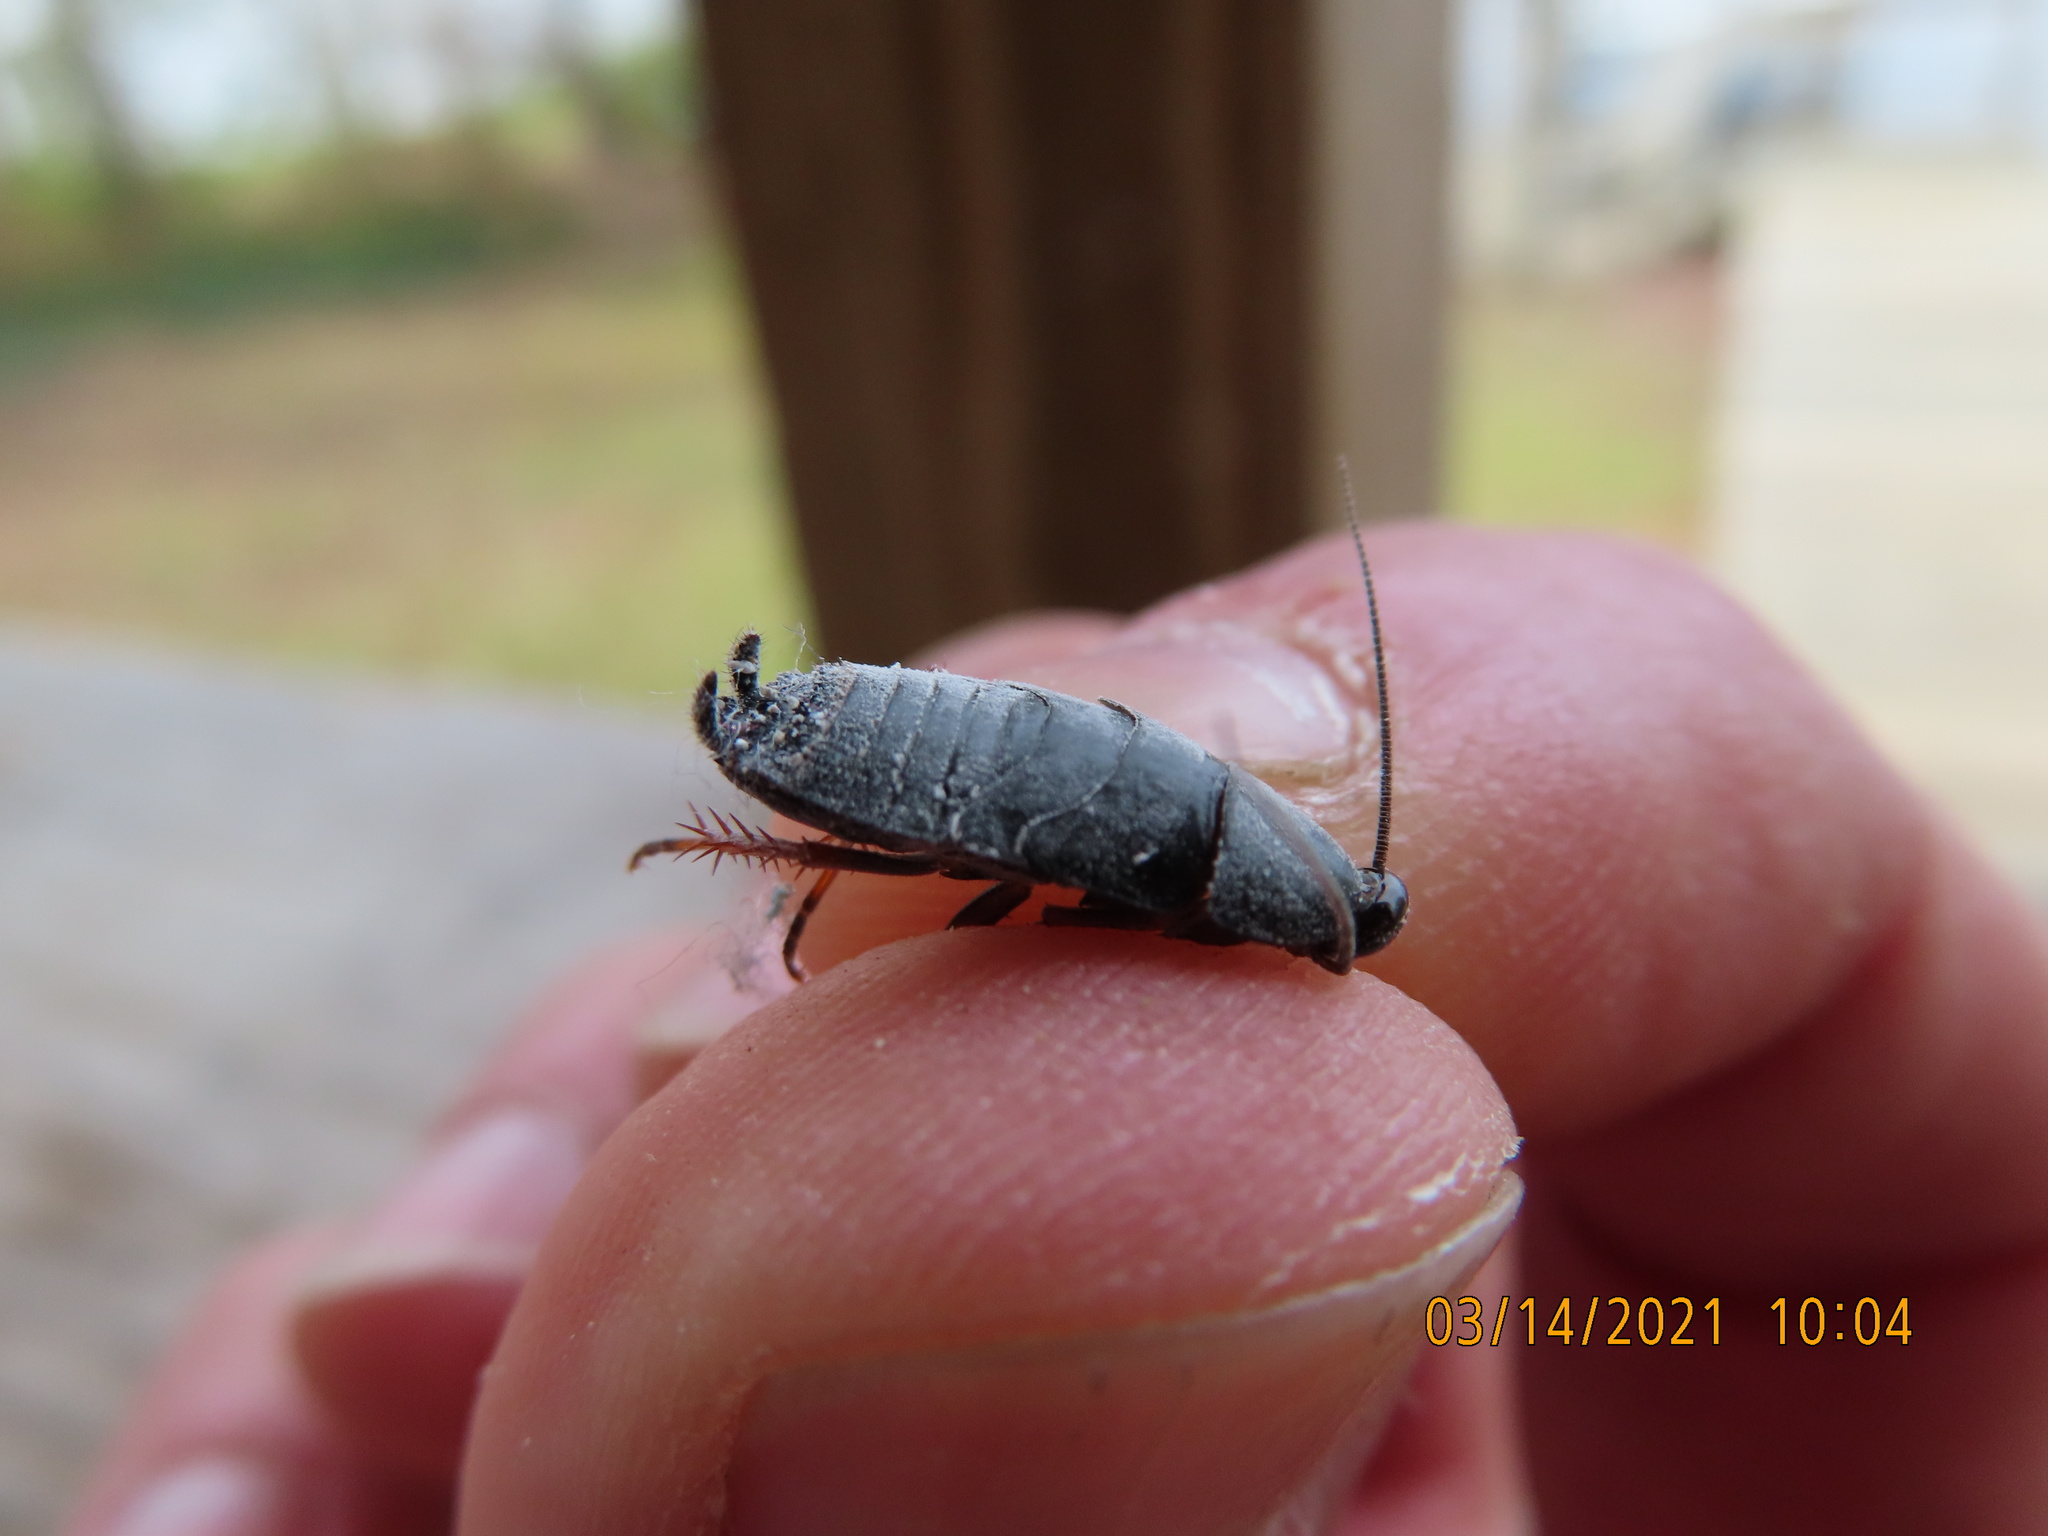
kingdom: Animalia
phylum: Arthropoda
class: Insecta
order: Blattodea
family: Ectobiidae
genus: Ischnoptera
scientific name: Ischnoptera deropeltiformis
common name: Dark wood cockroach
